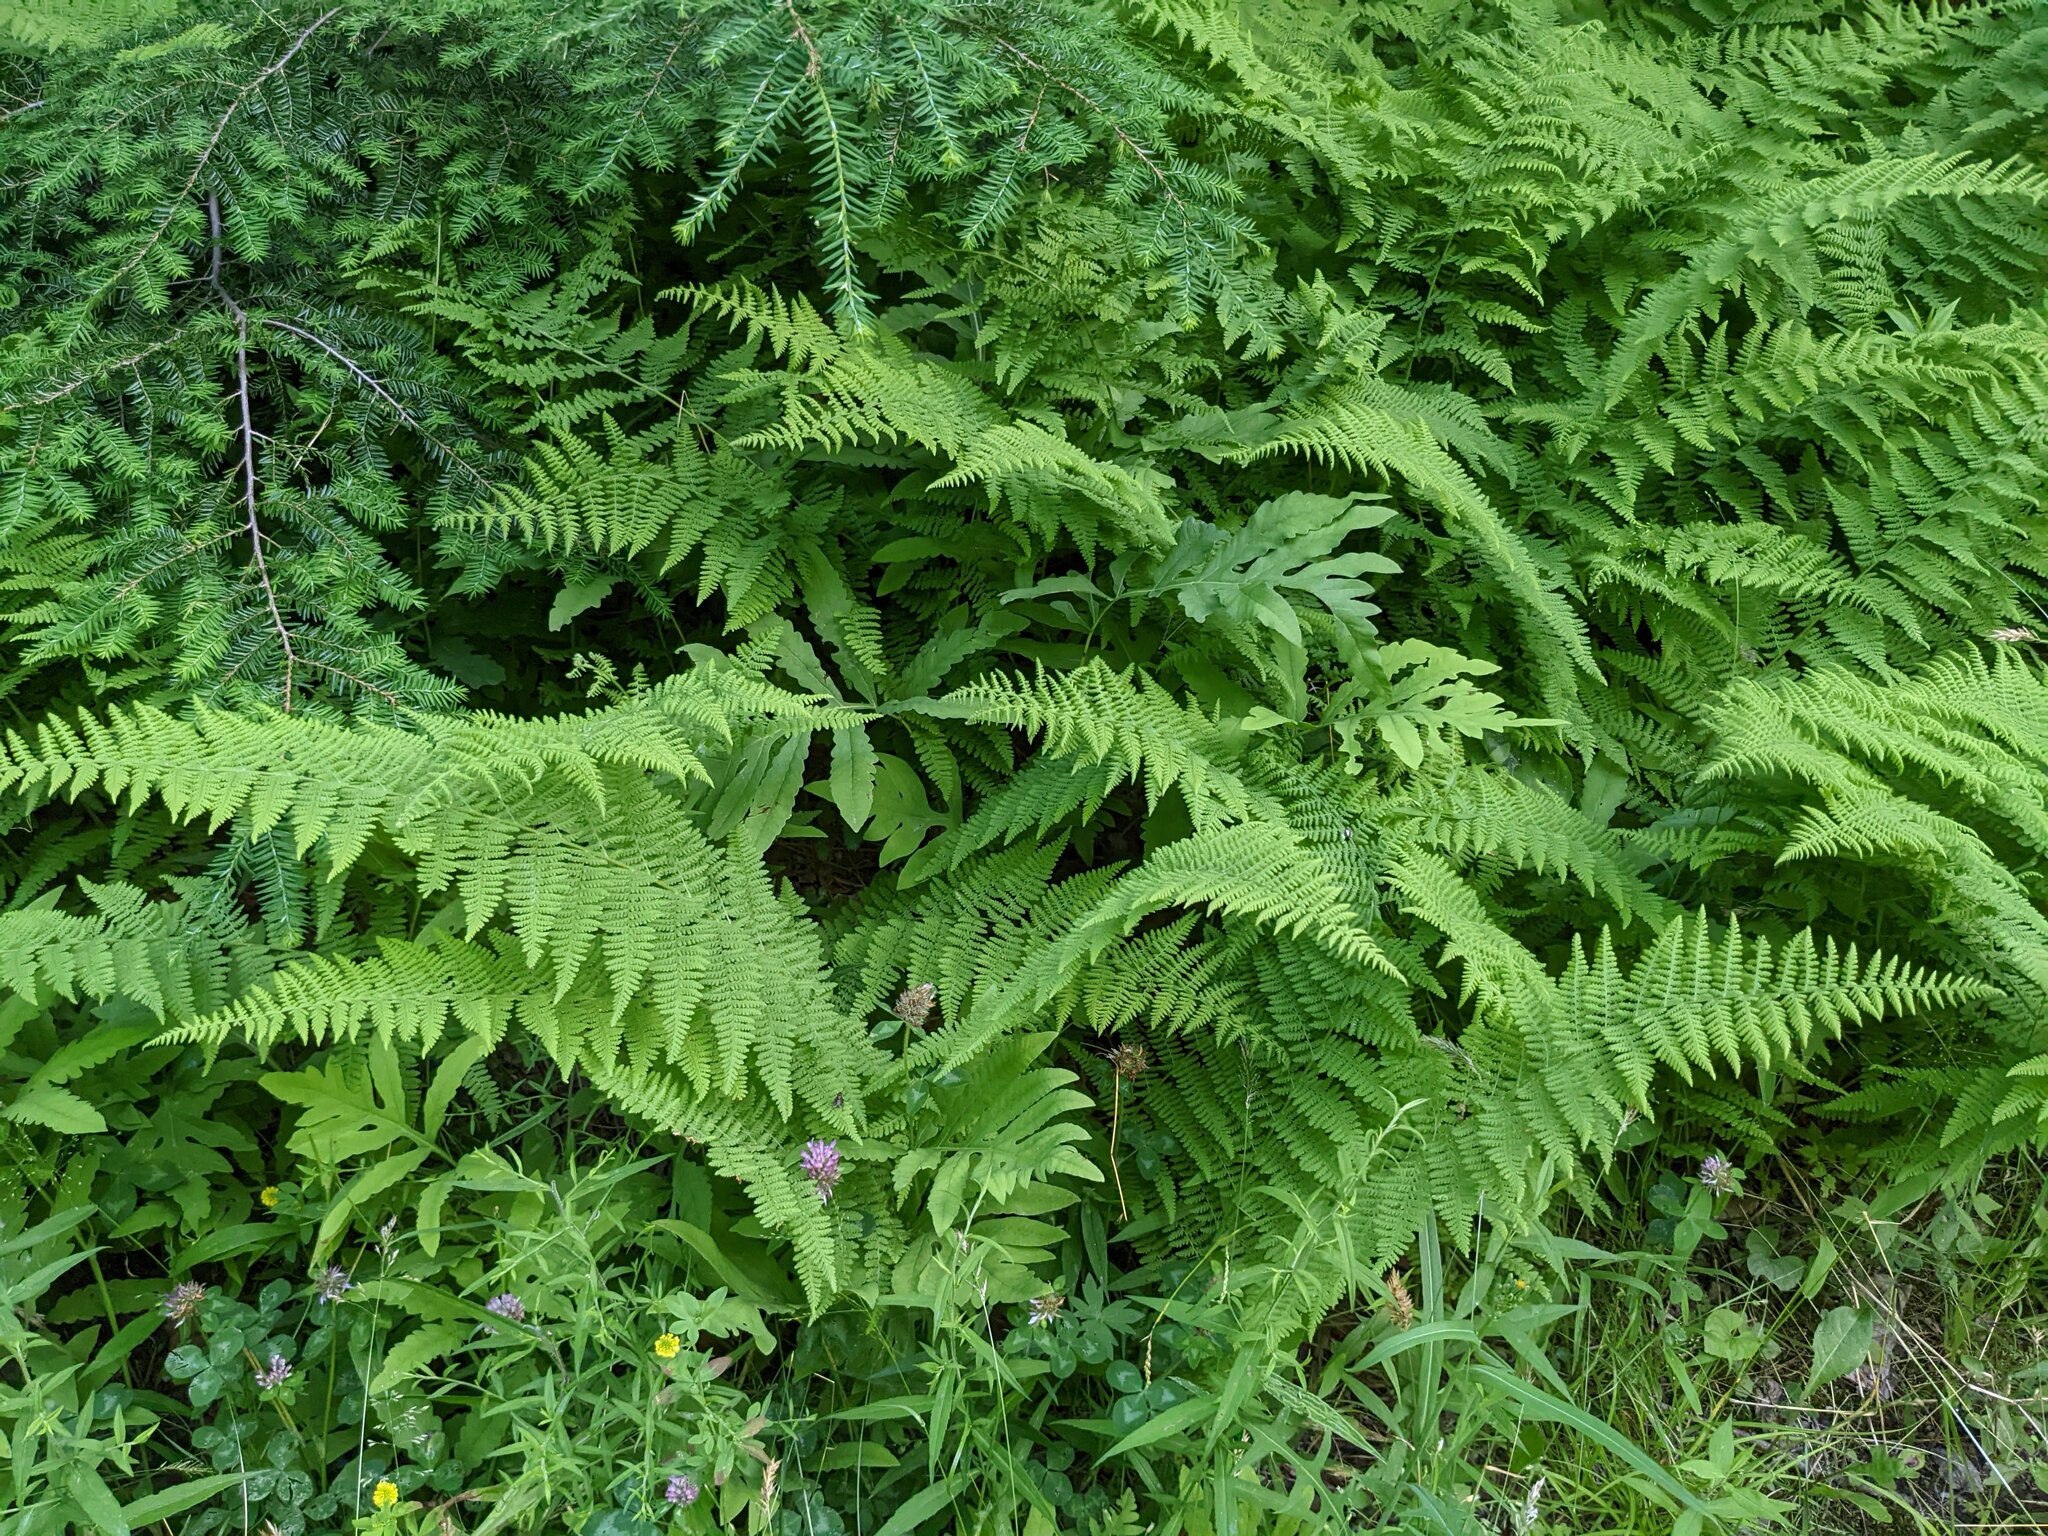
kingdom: Plantae
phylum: Tracheophyta
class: Pinopsida
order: Pinales
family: Pinaceae
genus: Tsuga
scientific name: Tsuga canadensis
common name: Eastern hemlock
